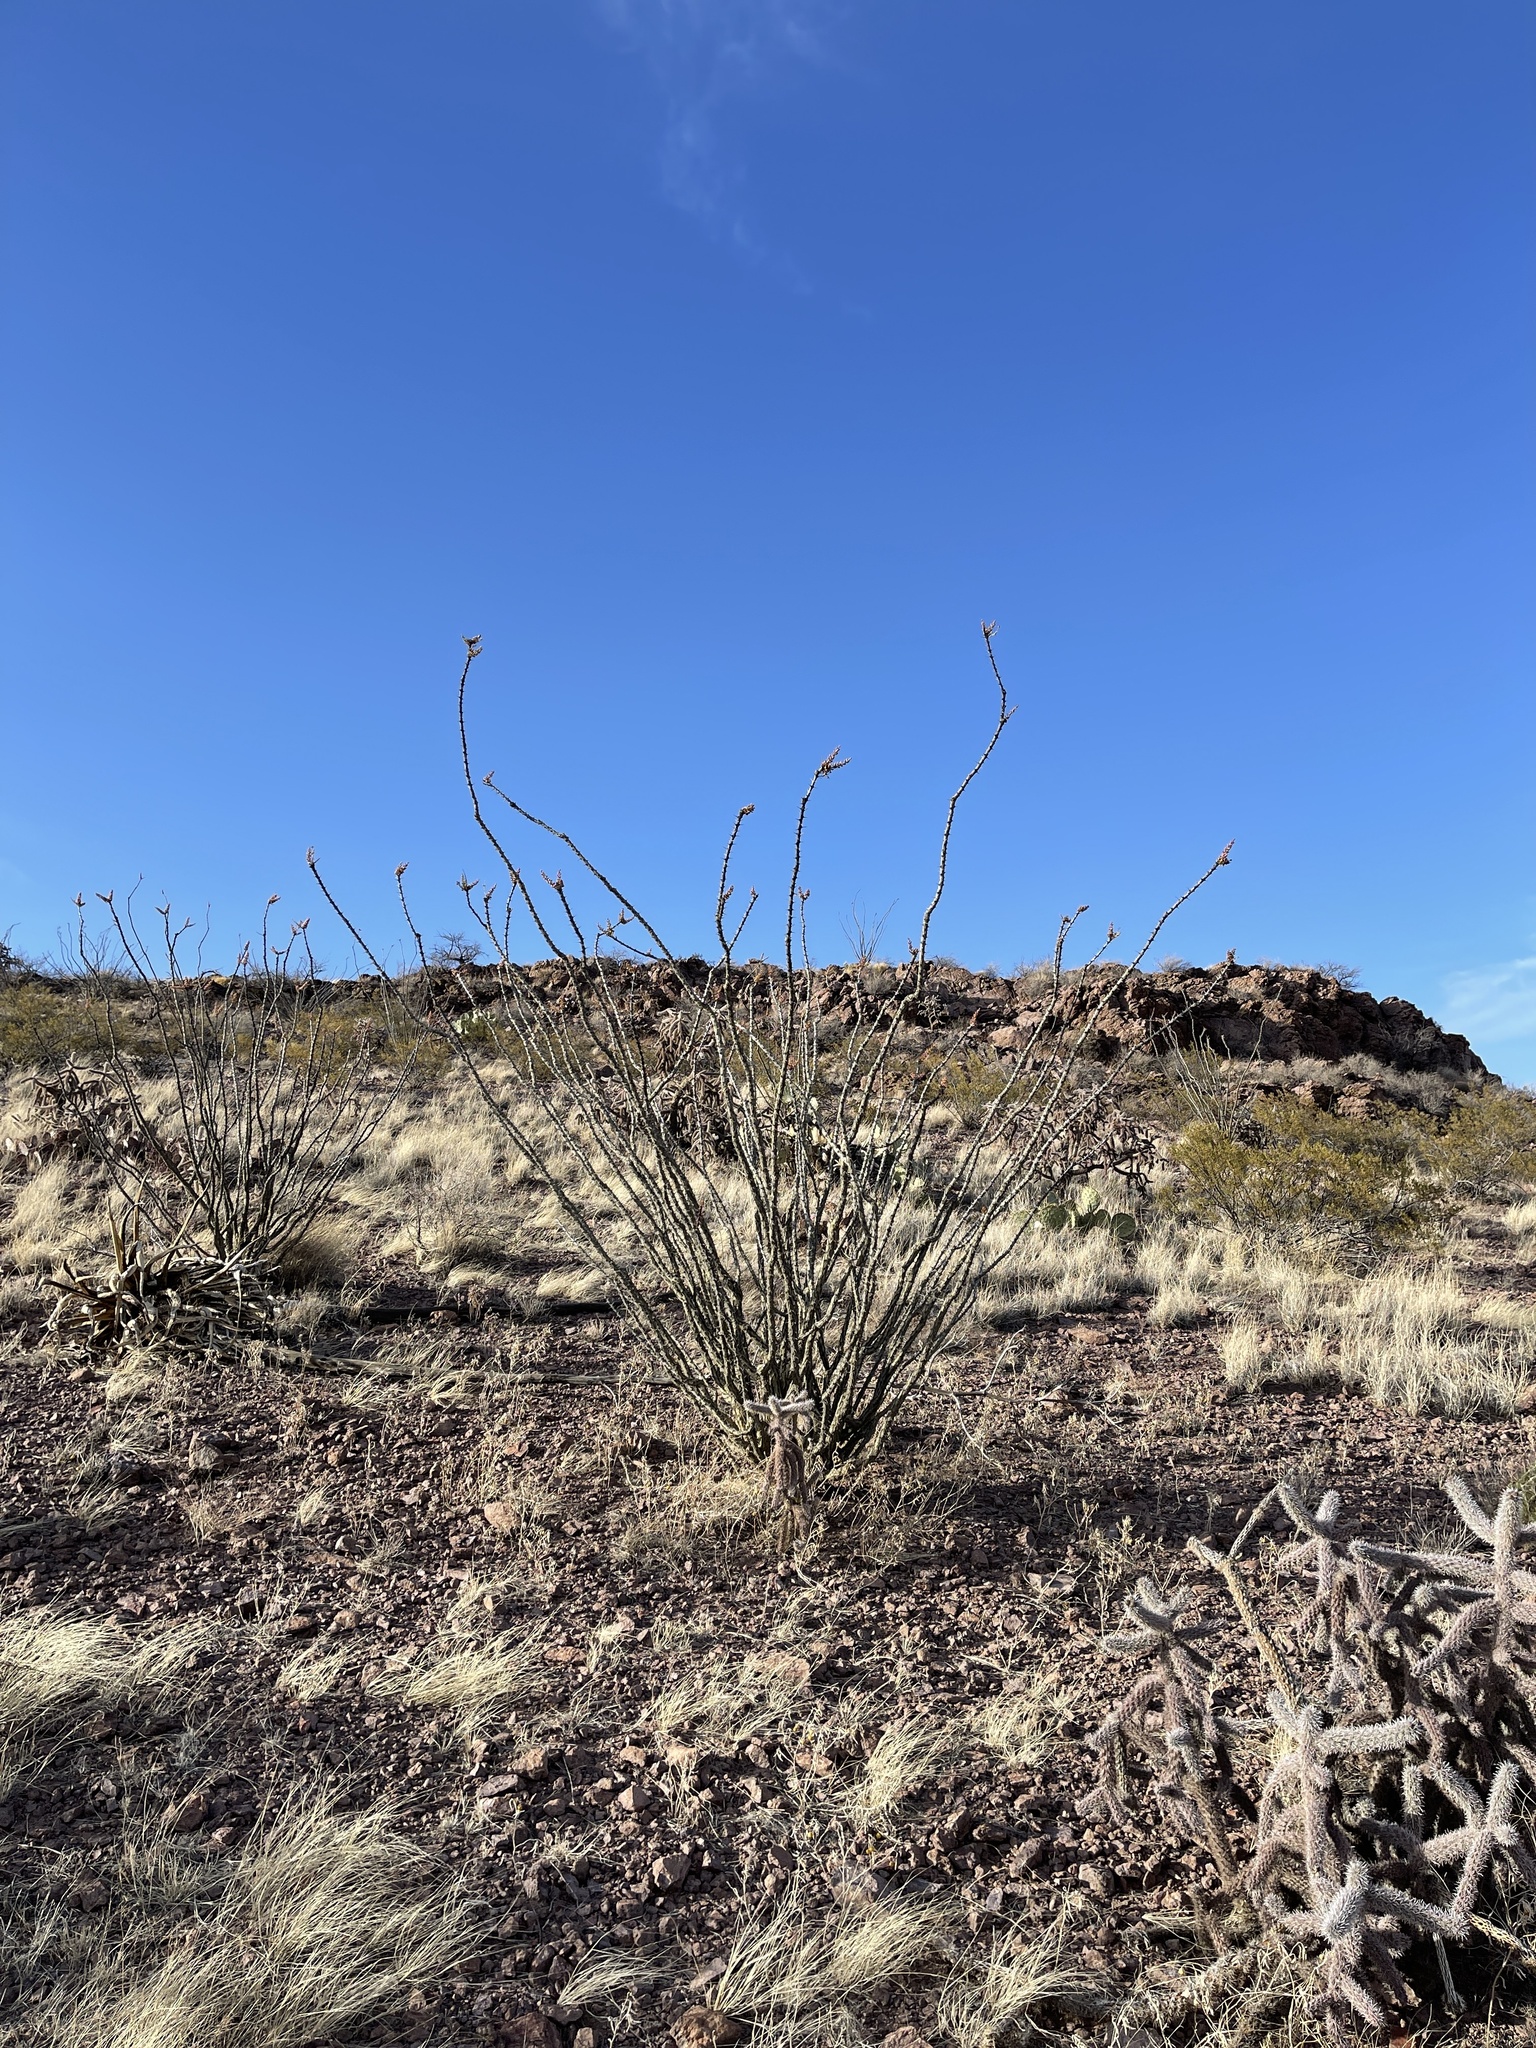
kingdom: Plantae
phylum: Tracheophyta
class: Magnoliopsida
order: Ericales
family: Fouquieriaceae
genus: Fouquieria
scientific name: Fouquieria splendens
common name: Vine-cactus
